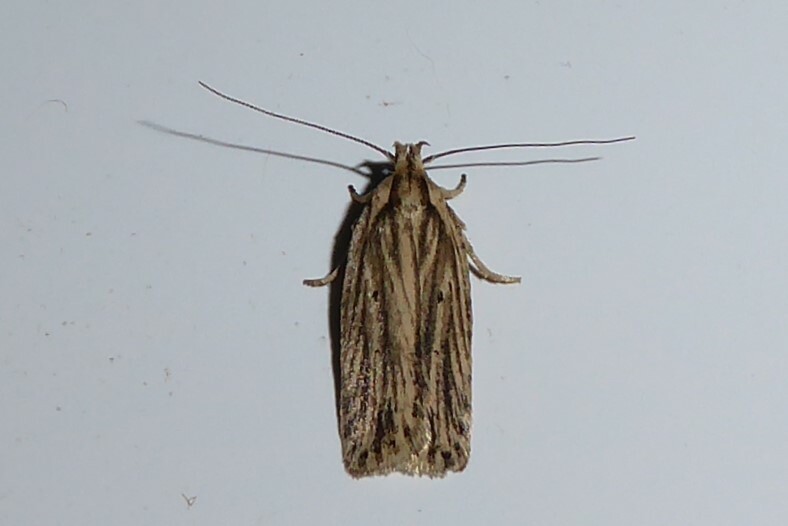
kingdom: Animalia
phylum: Arthropoda
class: Insecta
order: Lepidoptera
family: Depressariidae
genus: Agonopterix
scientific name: Agonopterix
